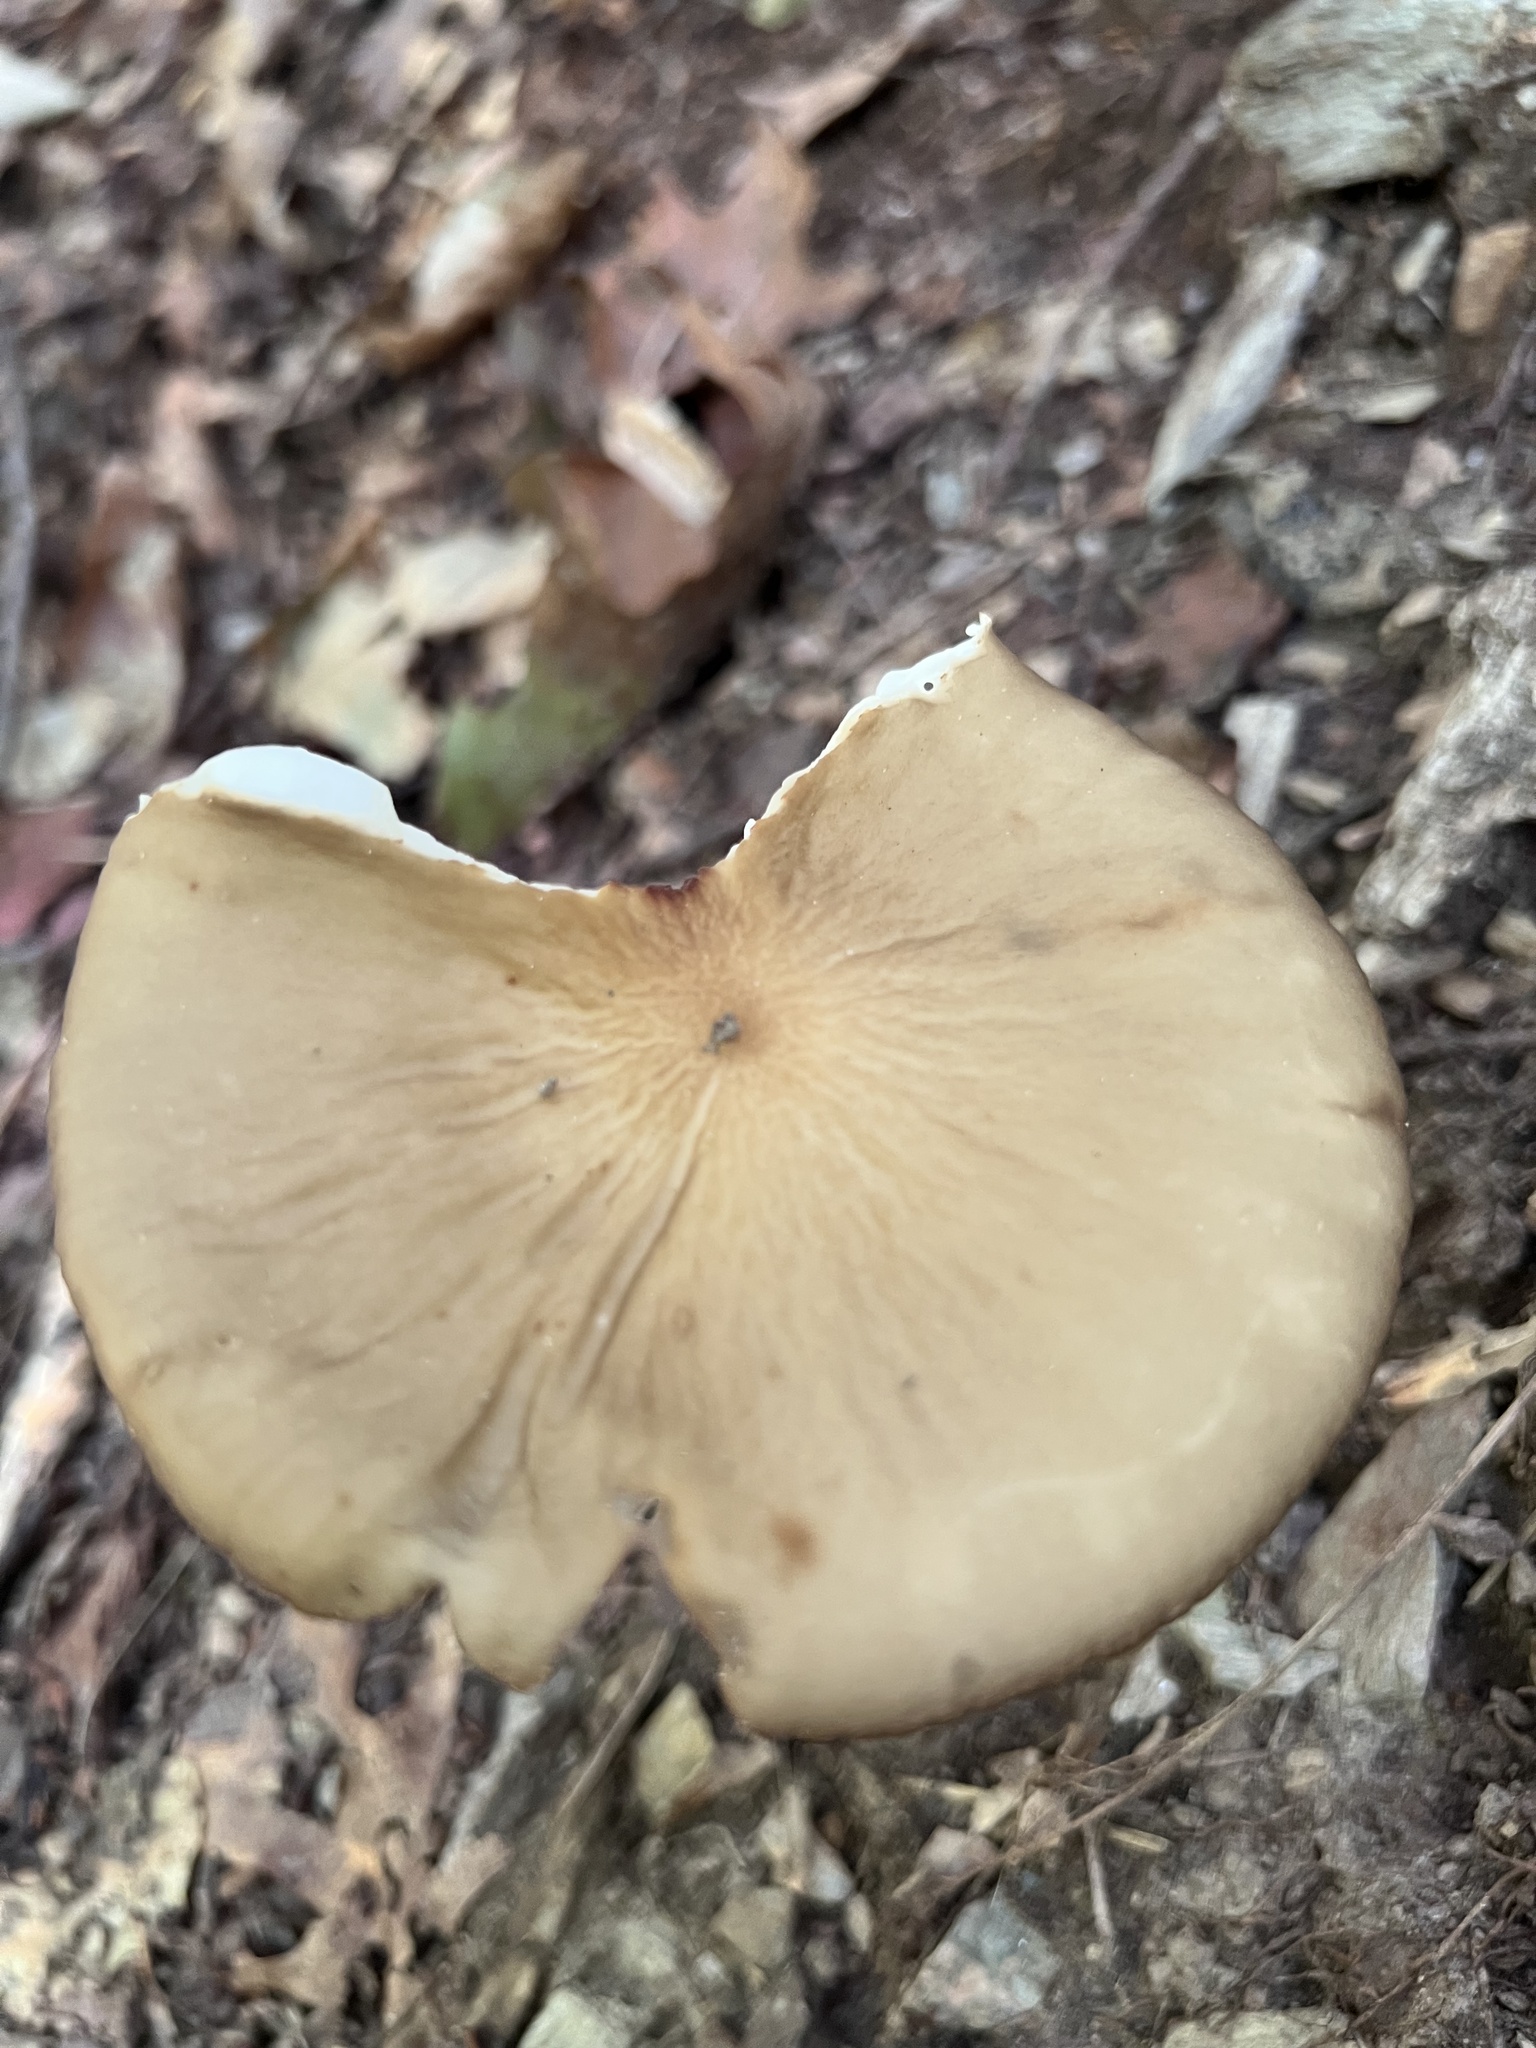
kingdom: Fungi
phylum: Basidiomycota
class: Agaricomycetes
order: Agaricales
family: Physalacriaceae
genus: Hymenopellis
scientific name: Hymenopellis furfuracea
